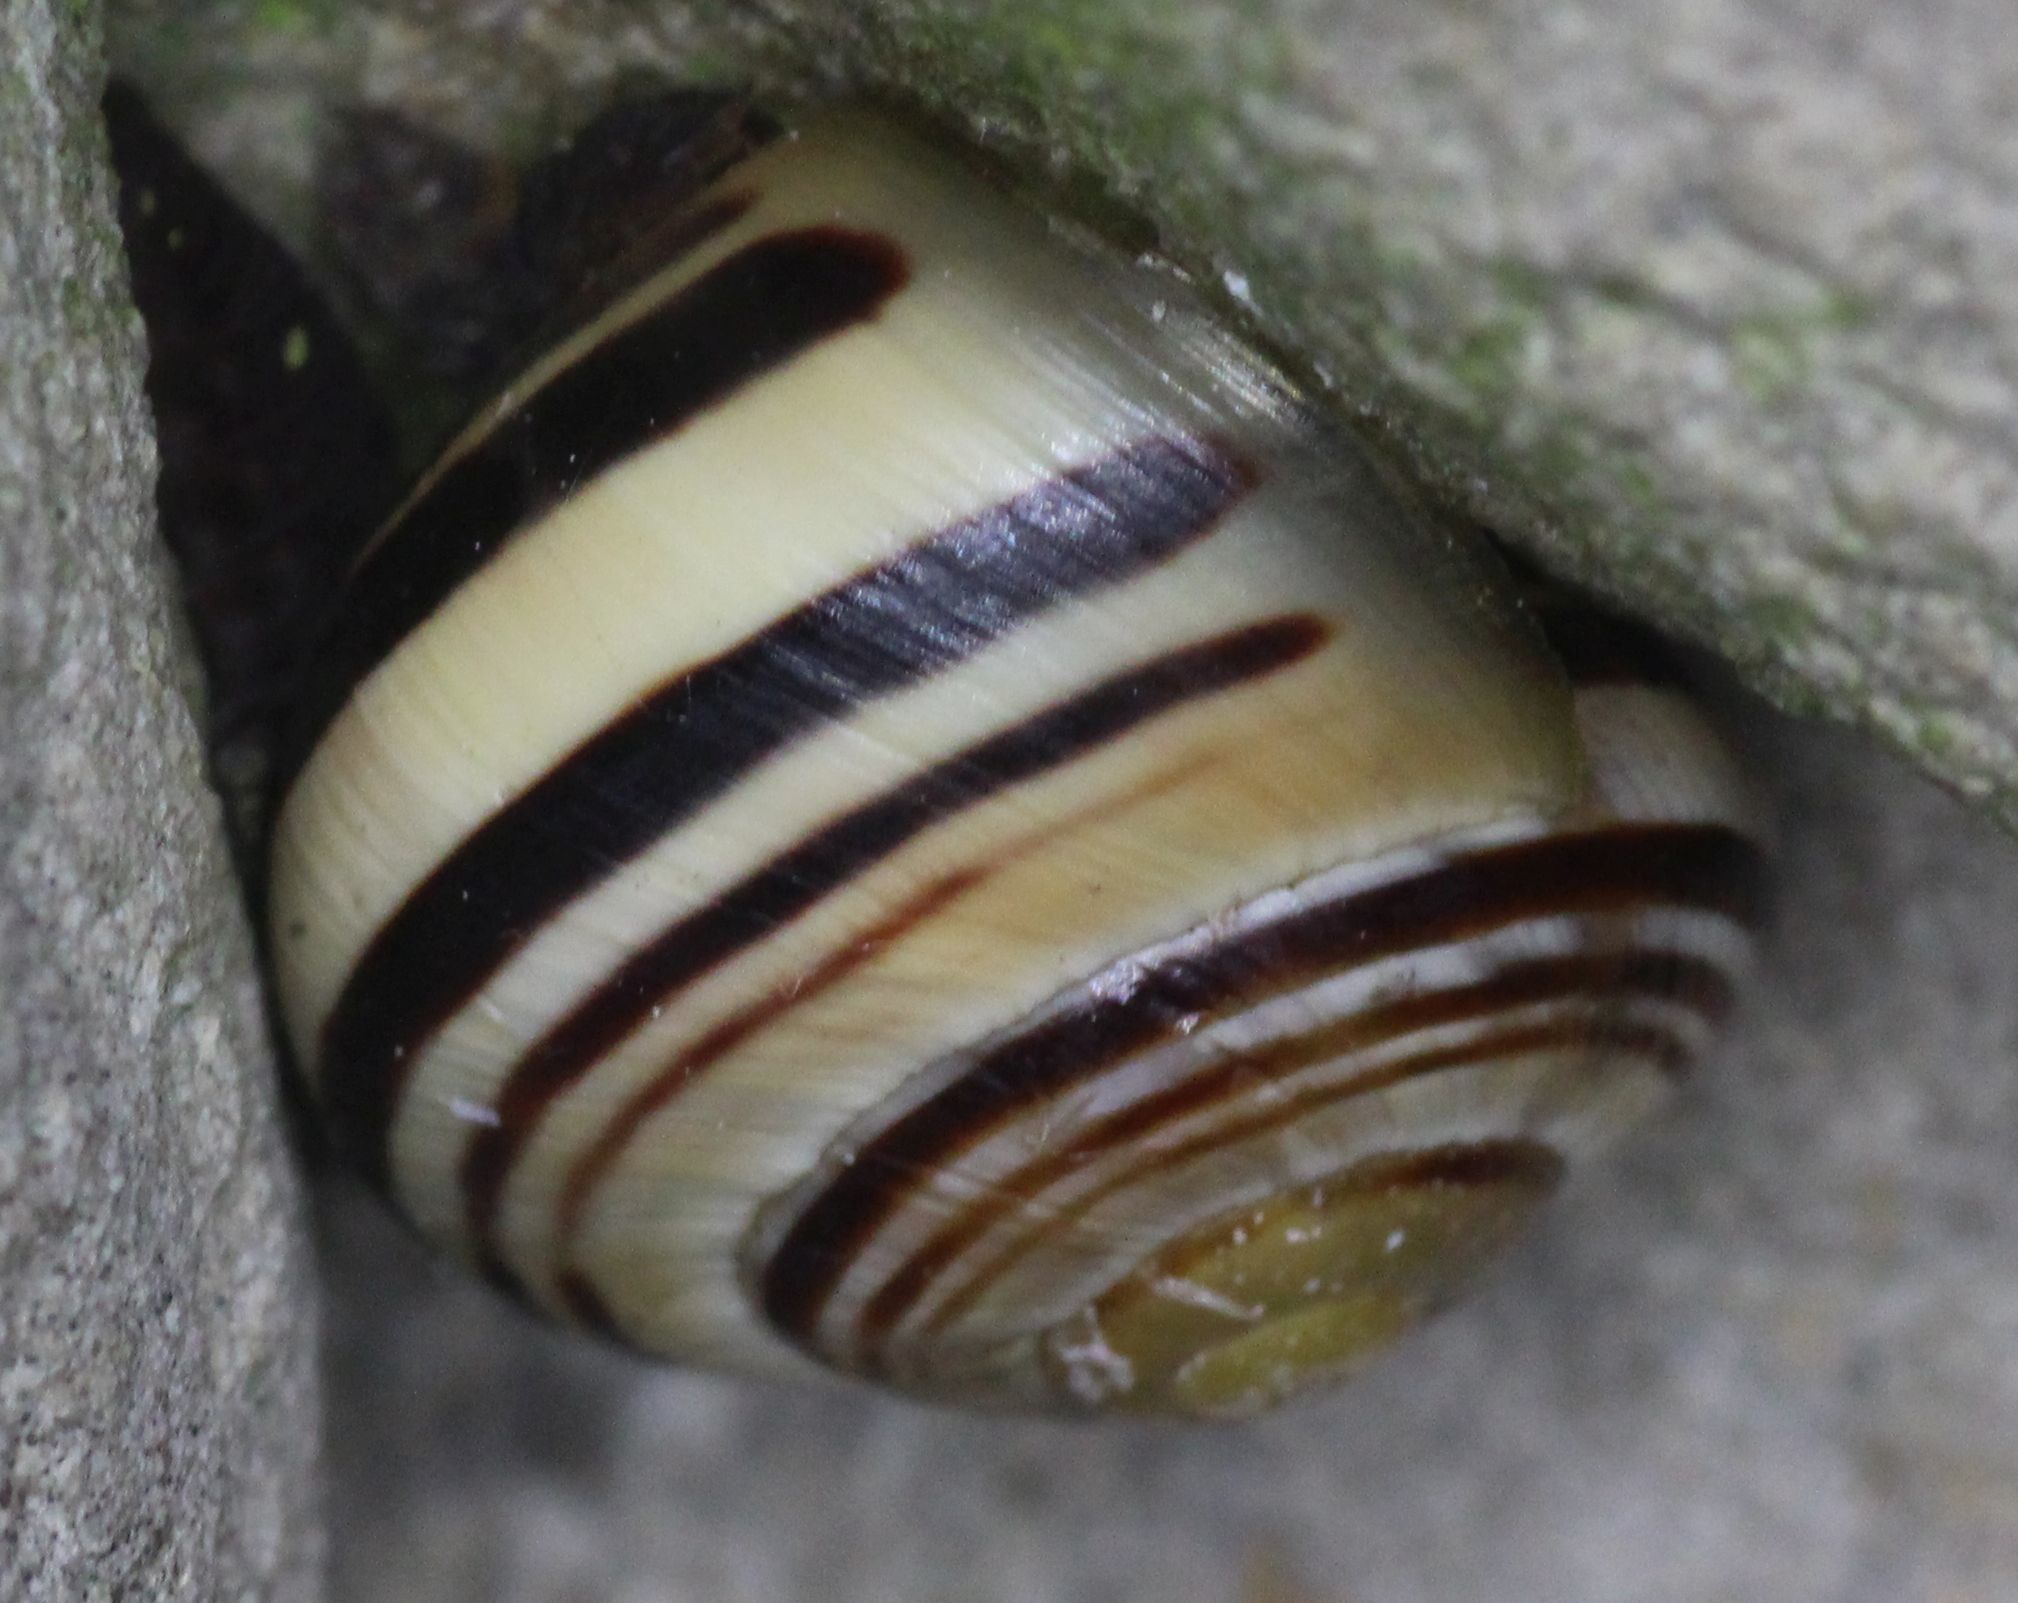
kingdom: Animalia
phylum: Mollusca
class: Gastropoda
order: Stylommatophora
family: Helicidae
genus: Cepaea
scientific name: Cepaea nemoralis
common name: Grovesnail
